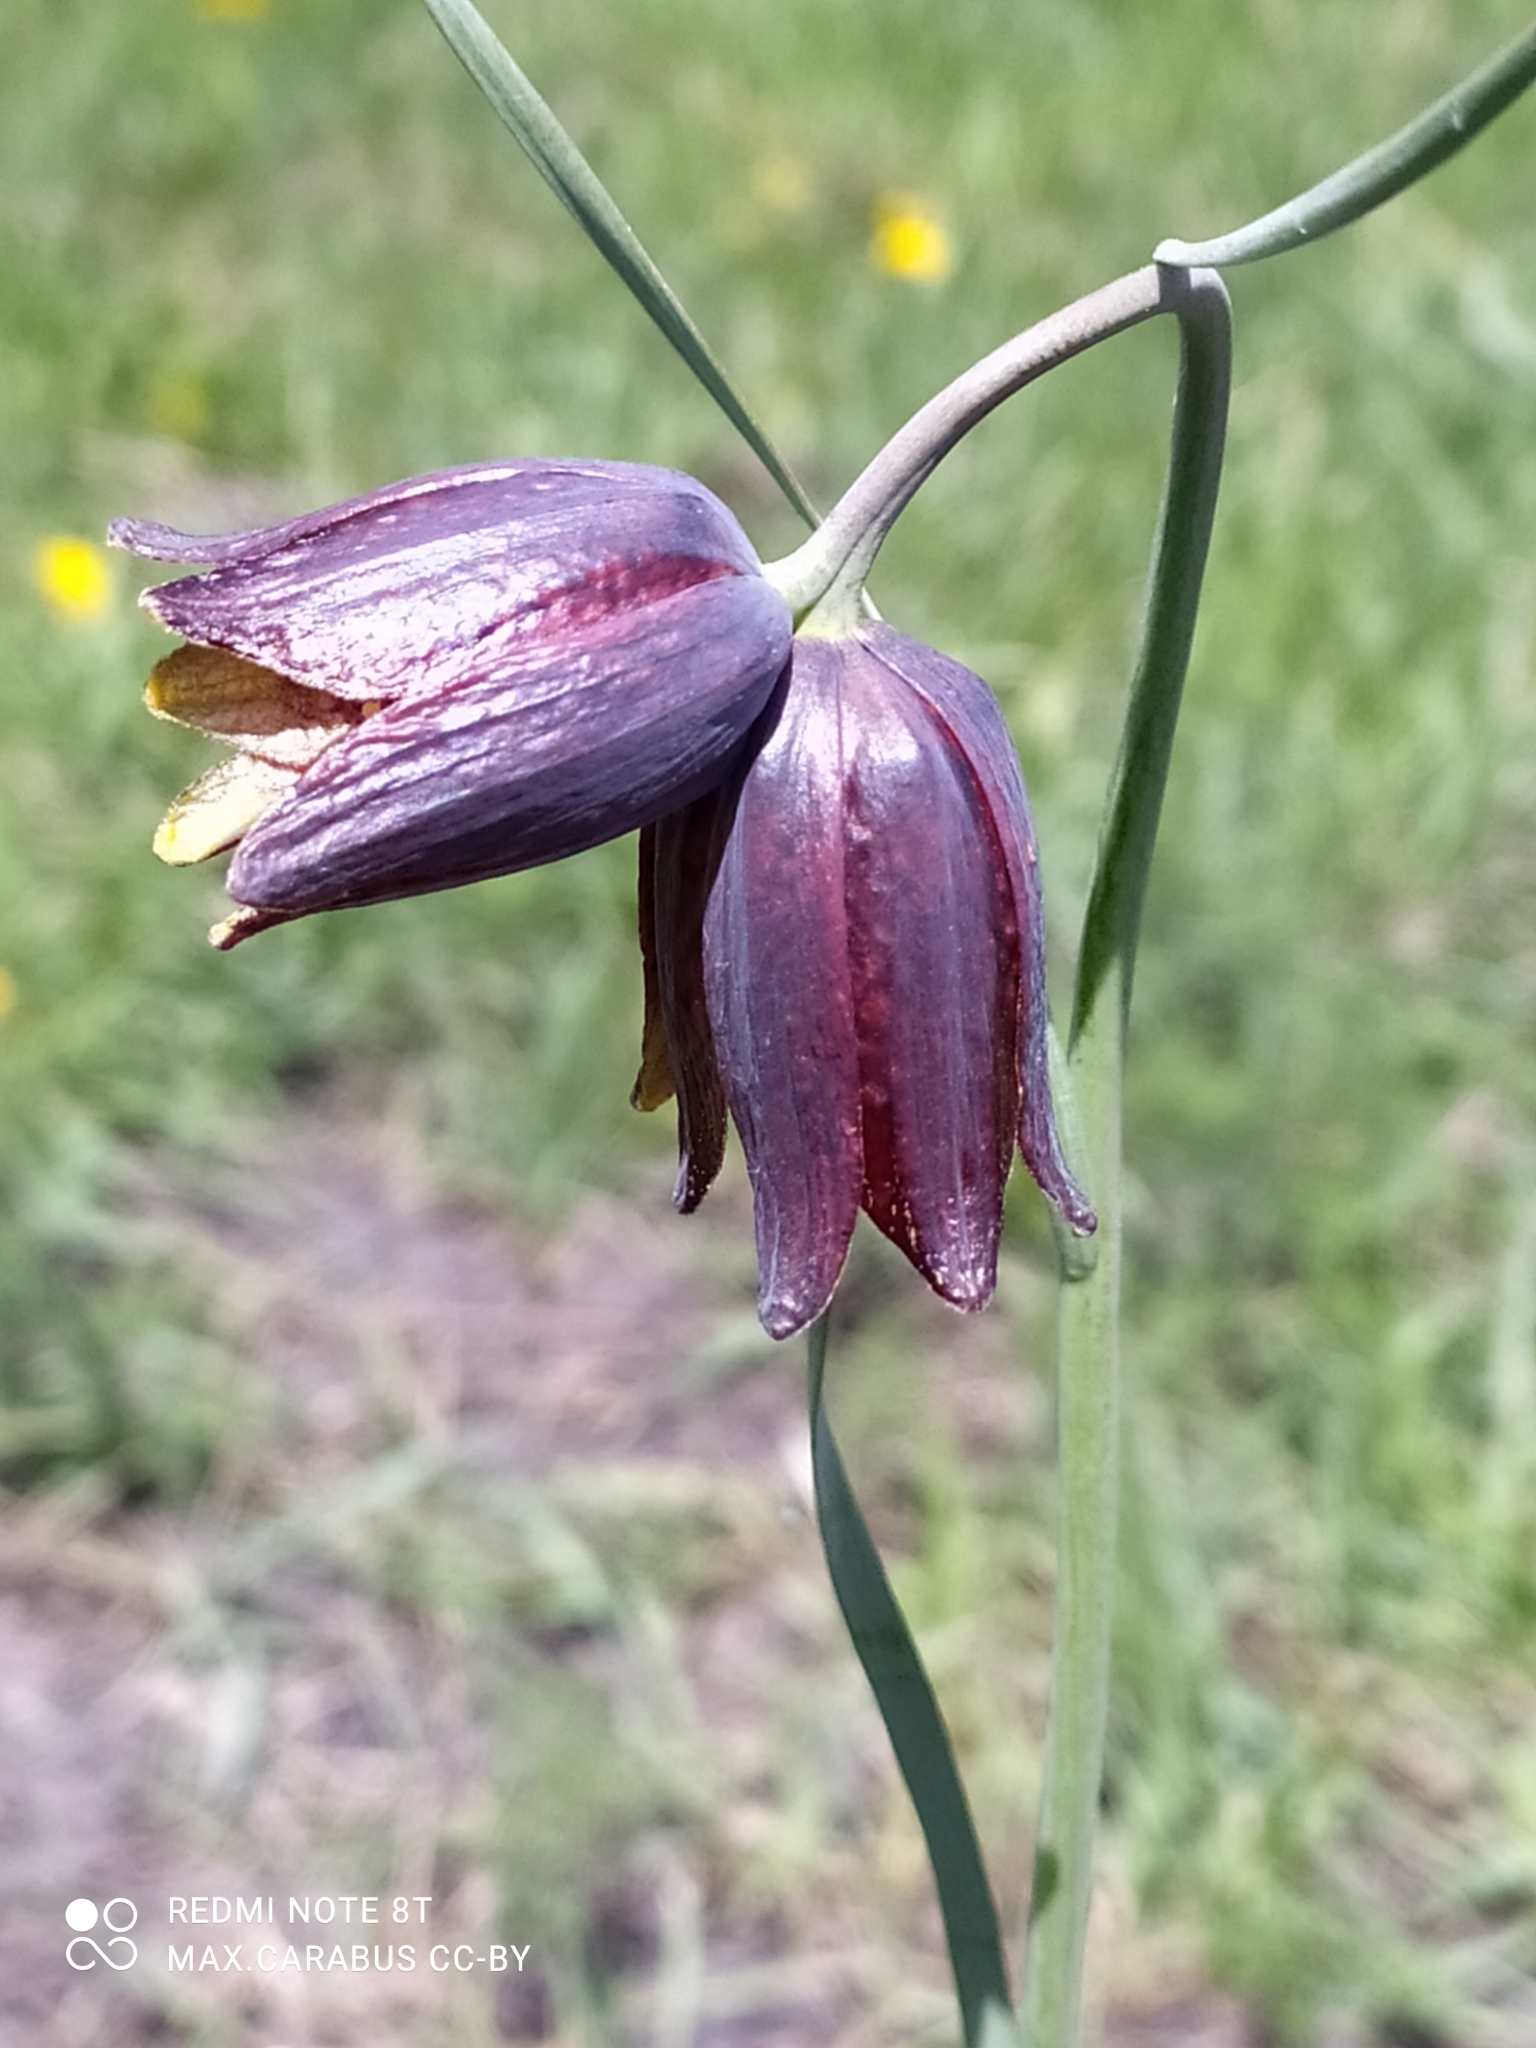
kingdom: Plantae
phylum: Tracheophyta
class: Liliopsida
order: Liliales
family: Liliaceae
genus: Fritillaria
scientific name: Fritillaria meleagroides
